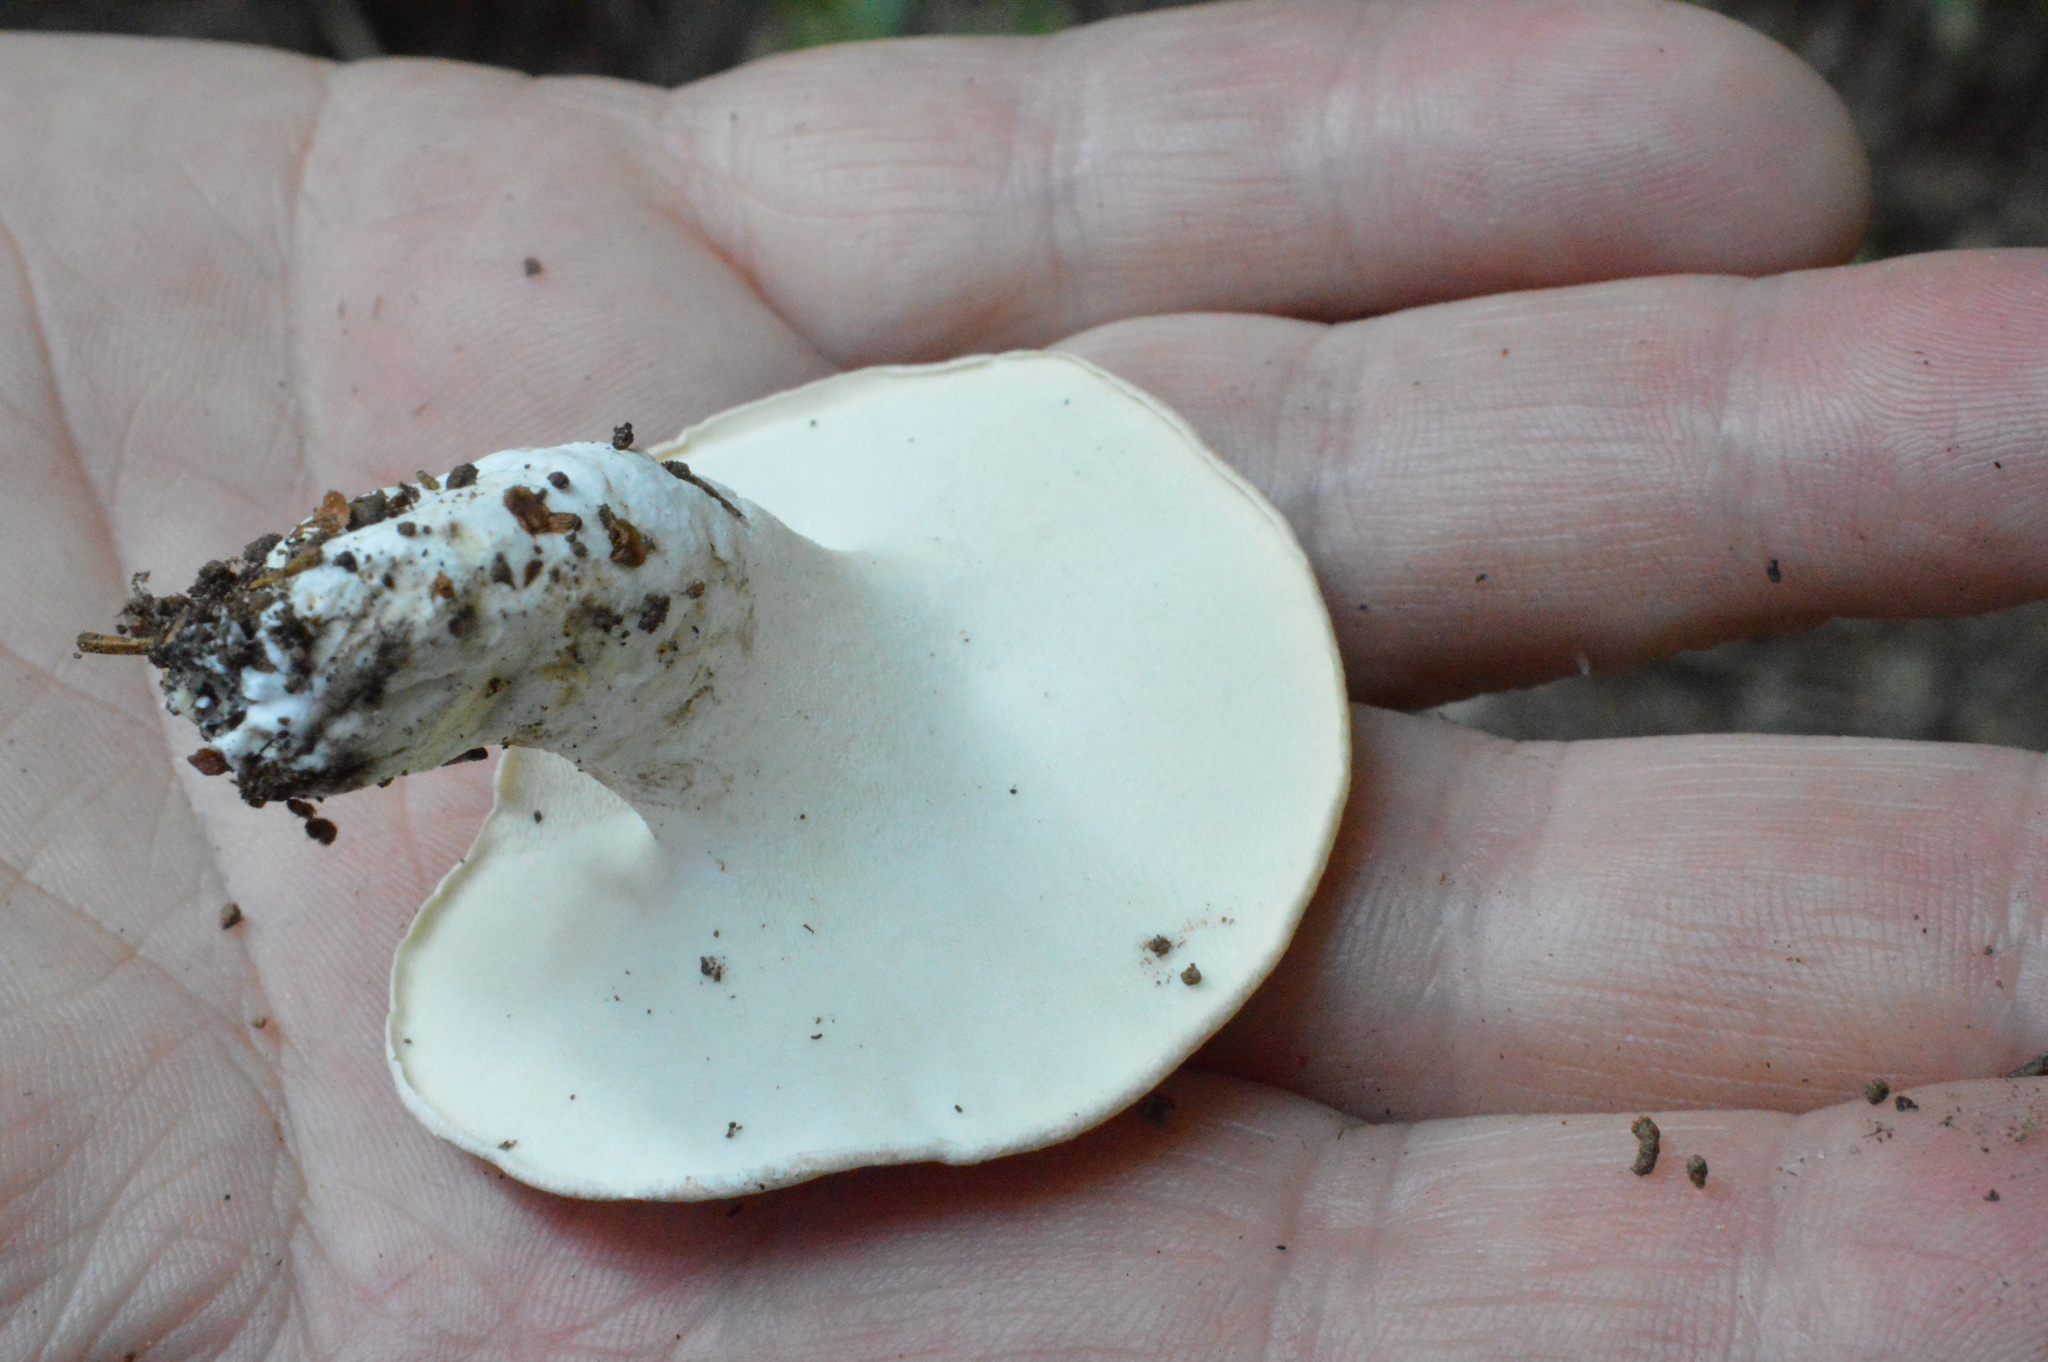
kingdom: Fungi
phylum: Basidiomycota
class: Agaricomycetes
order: Russulales
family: Albatrellaceae
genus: Albatrellus
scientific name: Albatrellus ovinus
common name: Forest lamb
